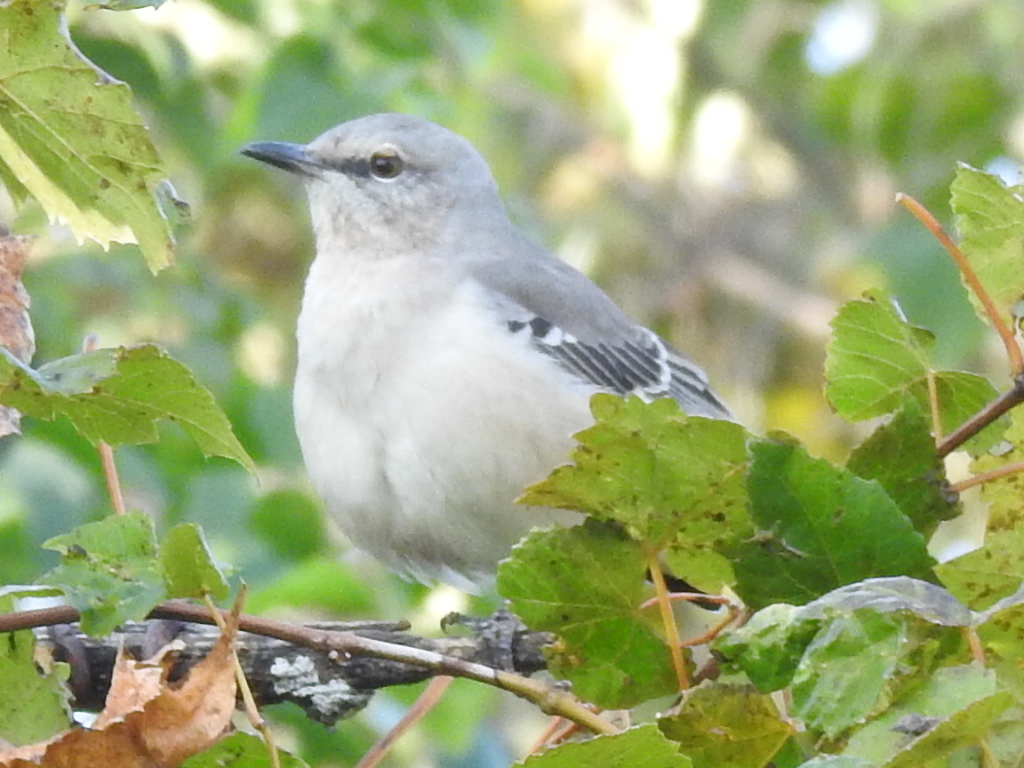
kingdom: Animalia
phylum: Chordata
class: Aves
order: Passeriformes
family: Mimidae
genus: Mimus
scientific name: Mimus polyglottos
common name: Northern mockingbird
